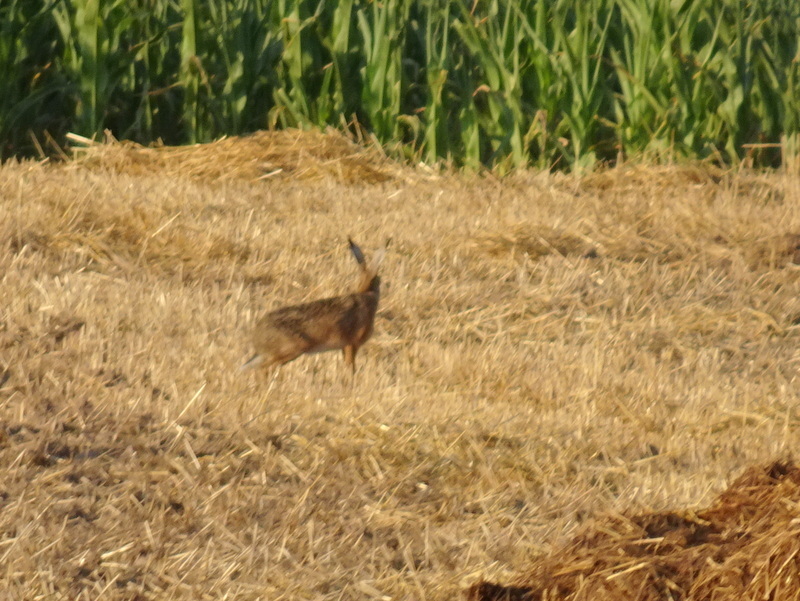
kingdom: Animalia
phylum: Chordata
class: Mammalia
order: Lagomorpha
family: Leporidae
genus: Lepus
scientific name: Lepus europaeus
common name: European hare
